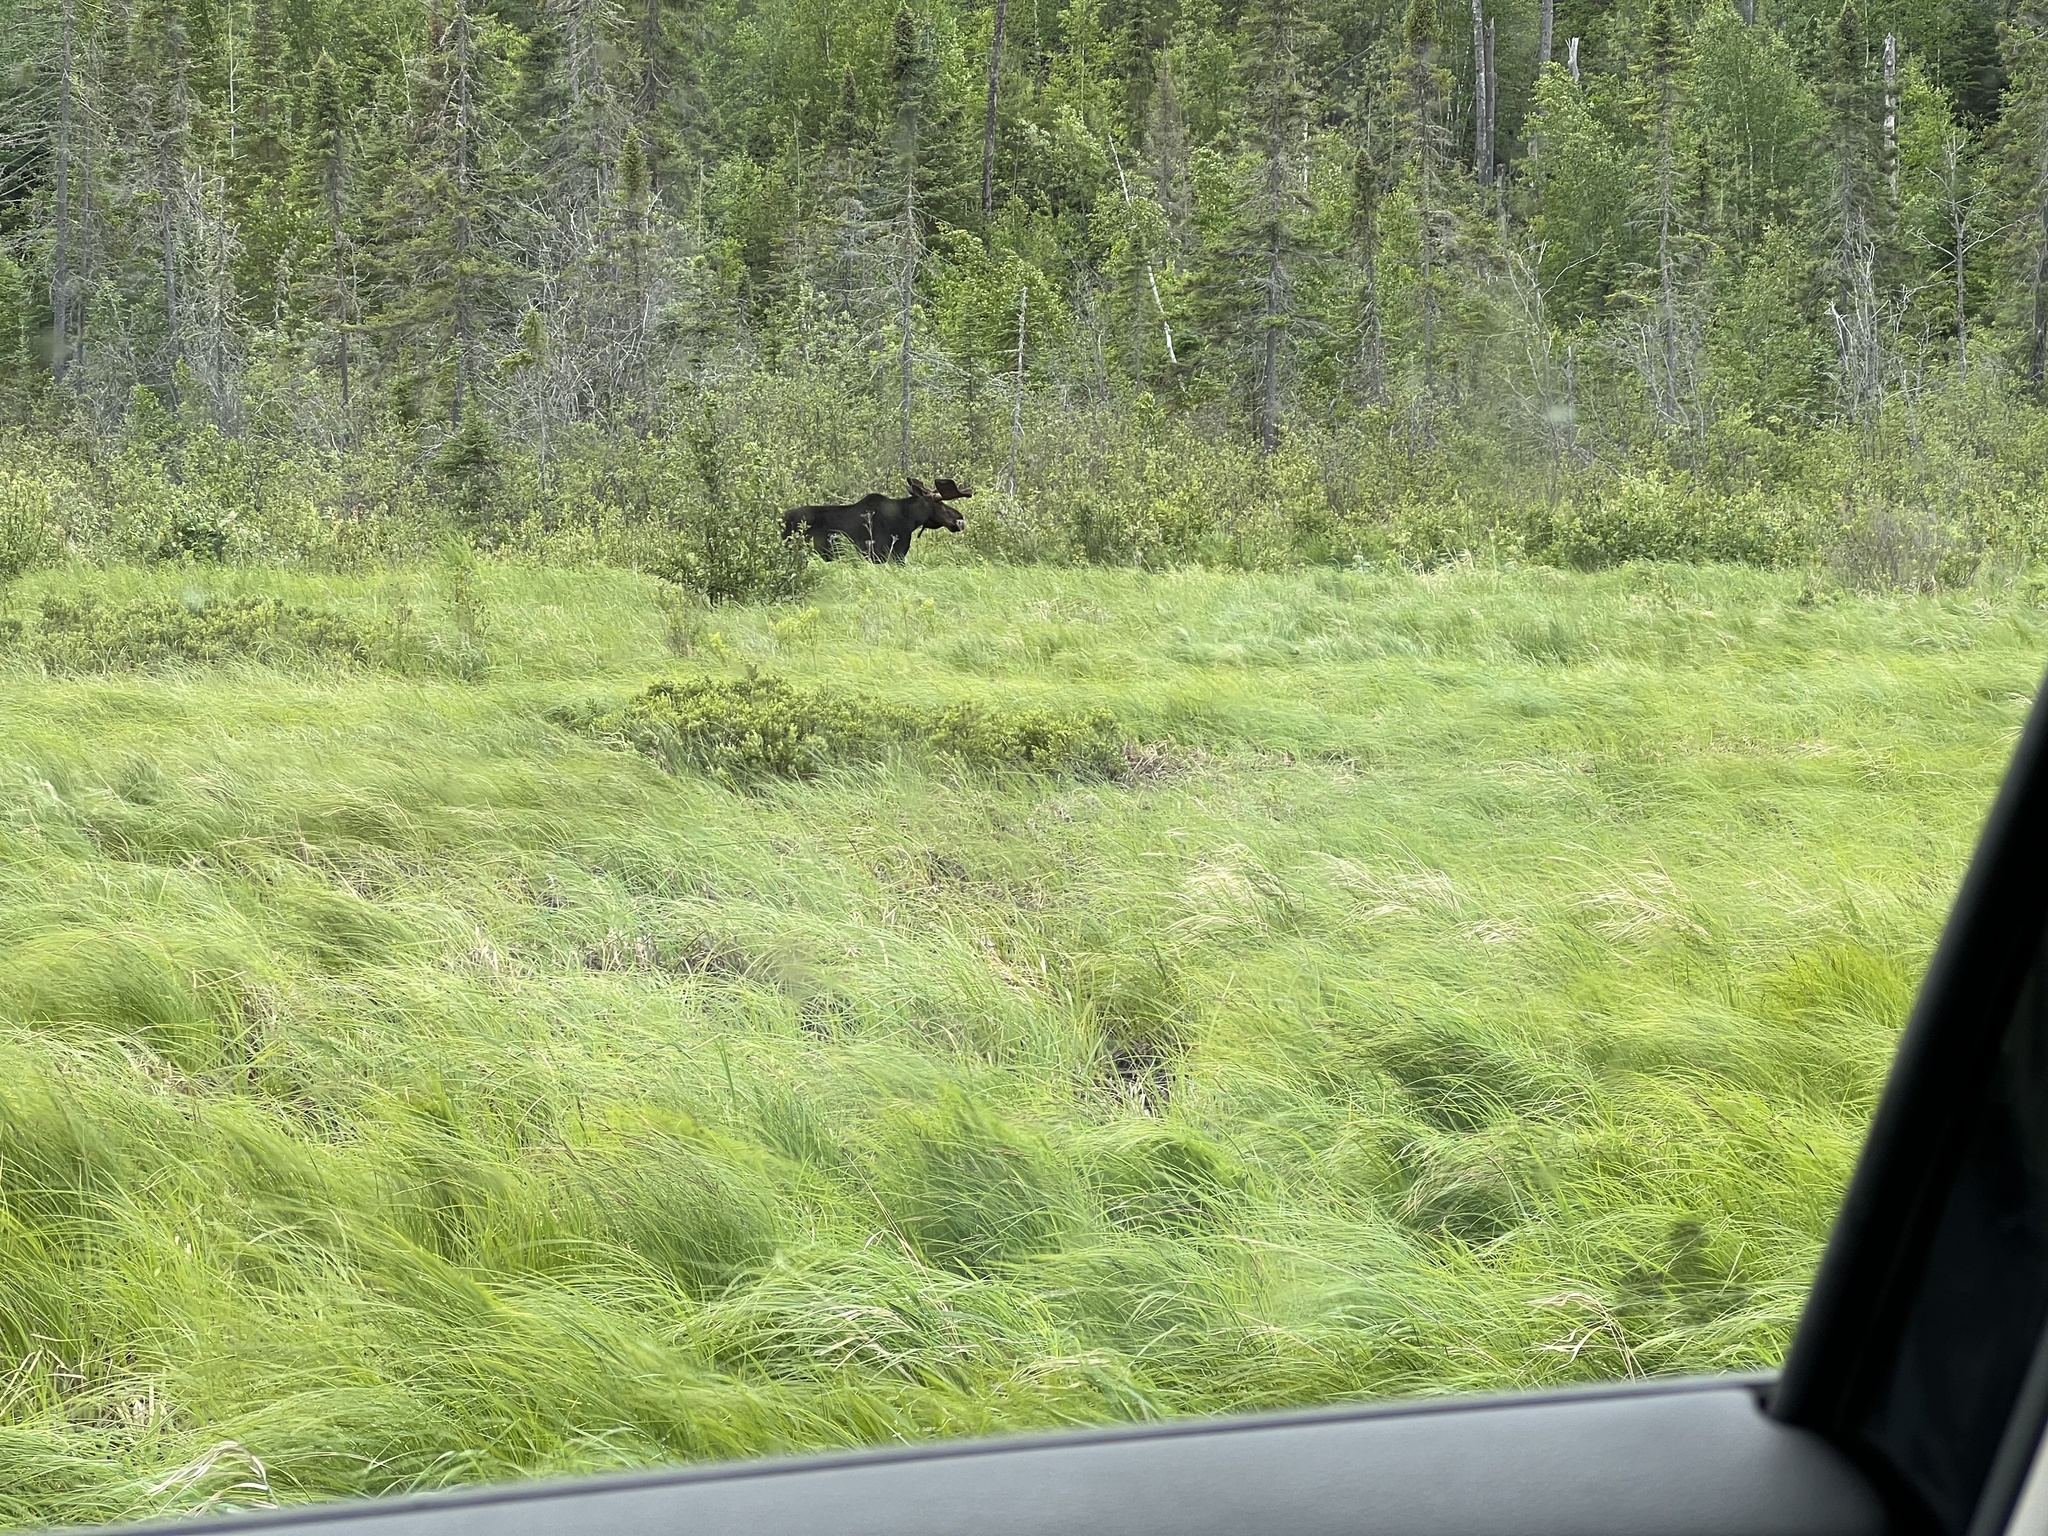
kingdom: Animalia
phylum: Chordata
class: Mammalia
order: Artiodactyla
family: Cervidae
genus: Alces
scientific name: Alces alces
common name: Moose
